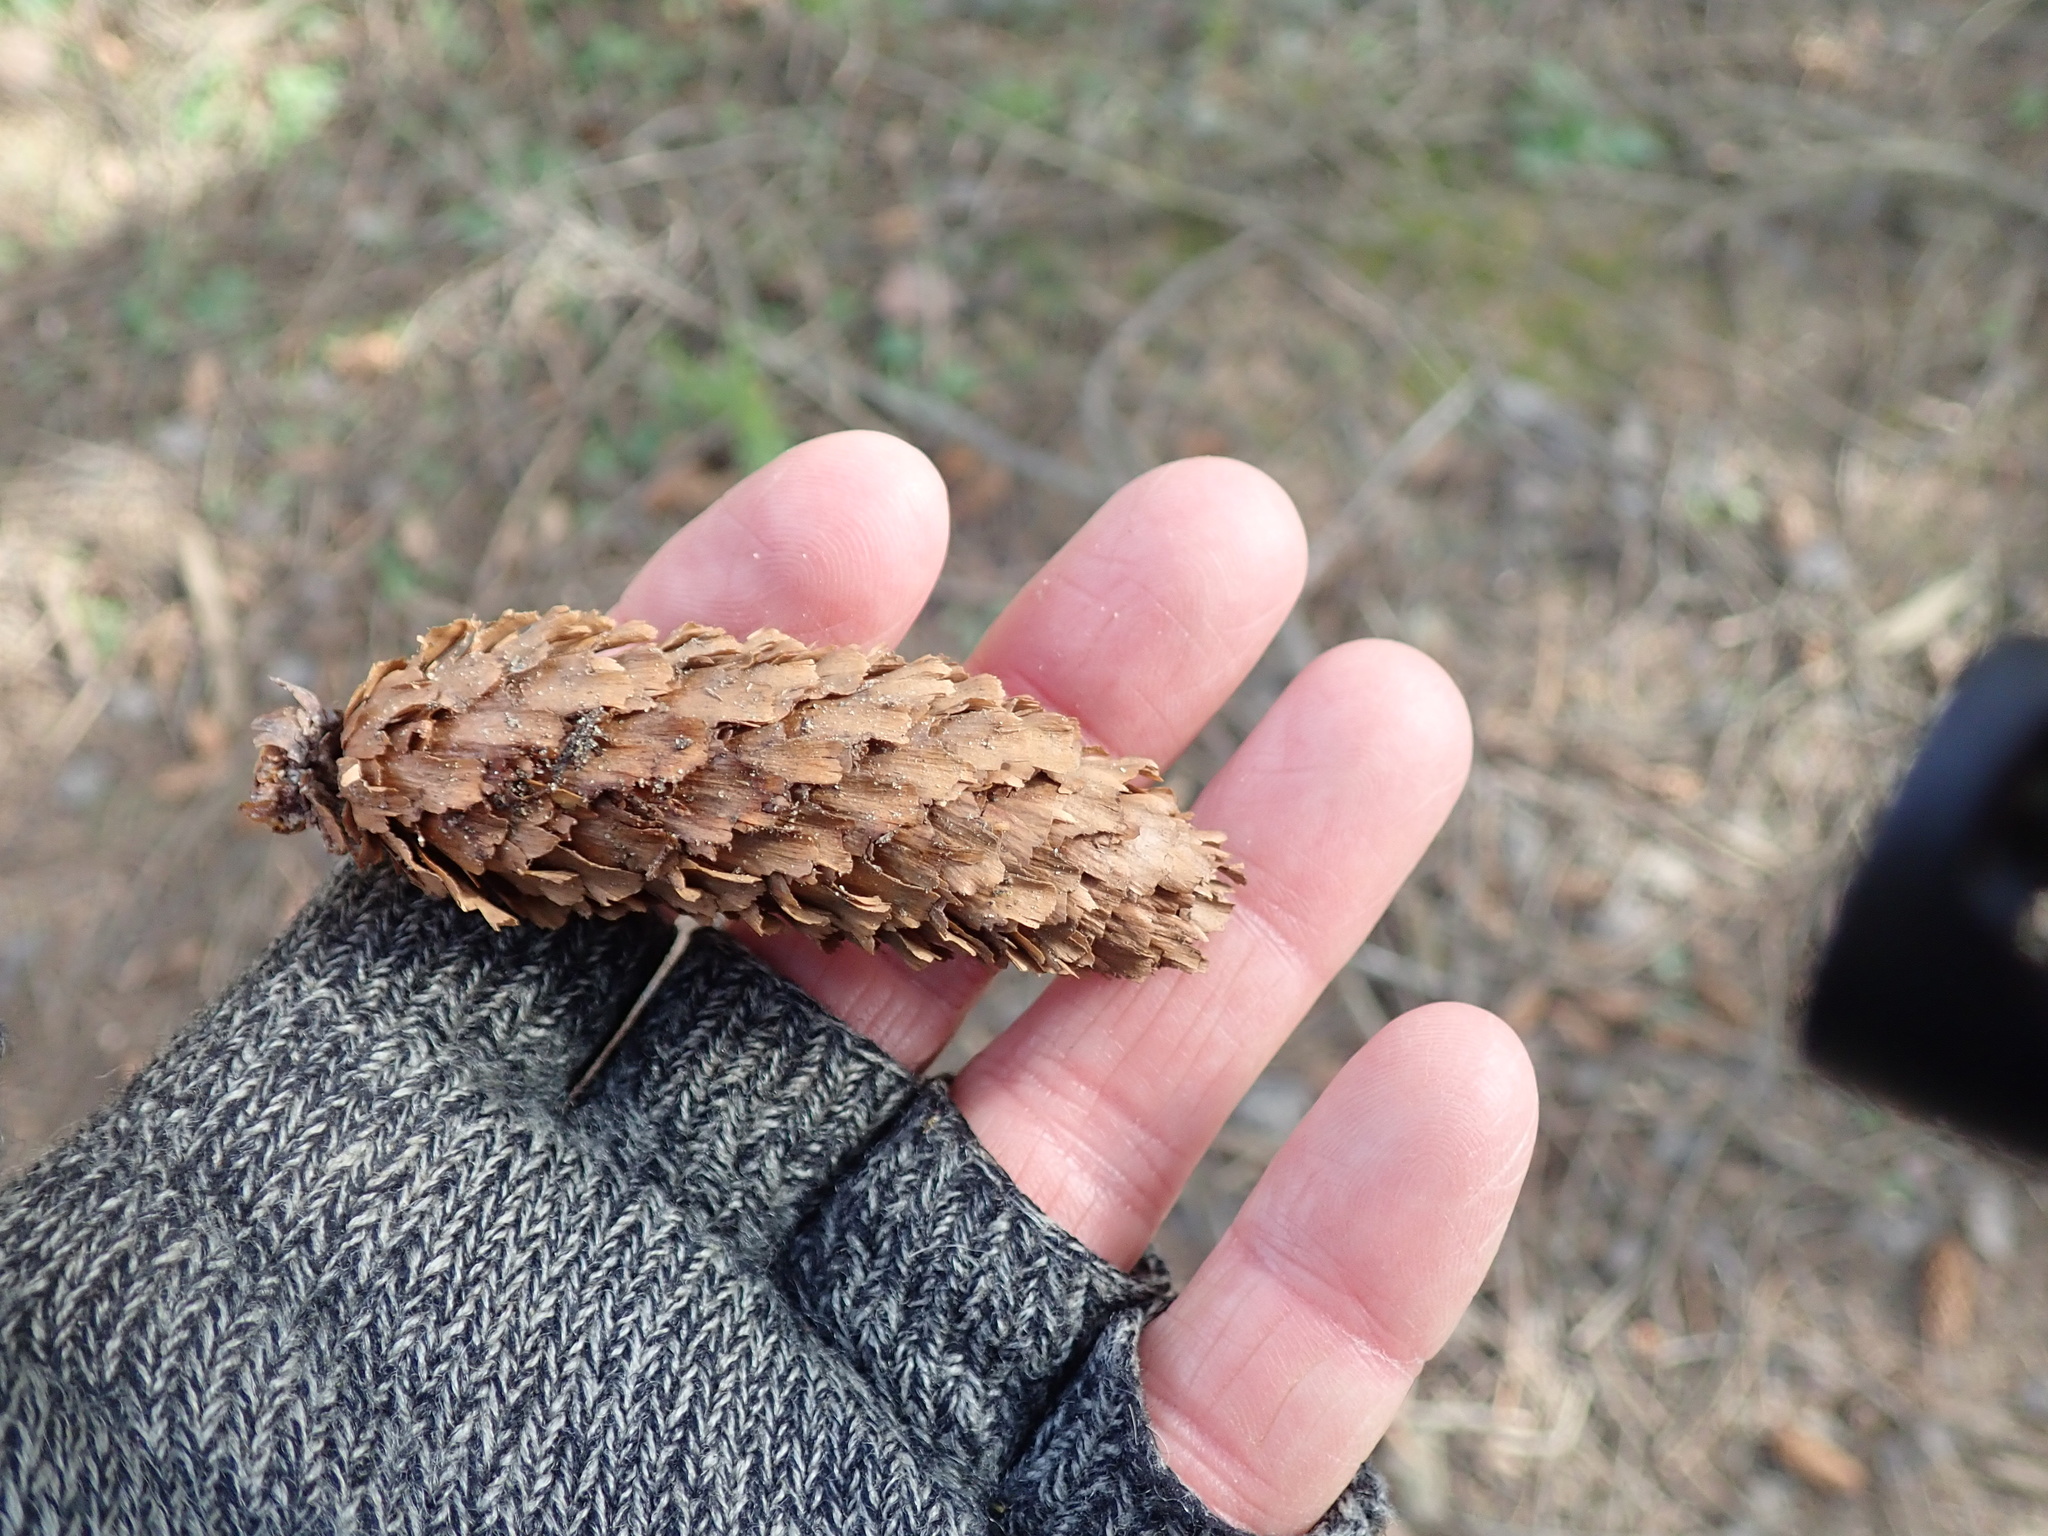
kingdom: Plantae
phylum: Tracheophyta
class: Pinopsida
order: Pinales
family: Pinaceae
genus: Picea
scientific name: Picea sitchensis
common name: Sitka spruce
